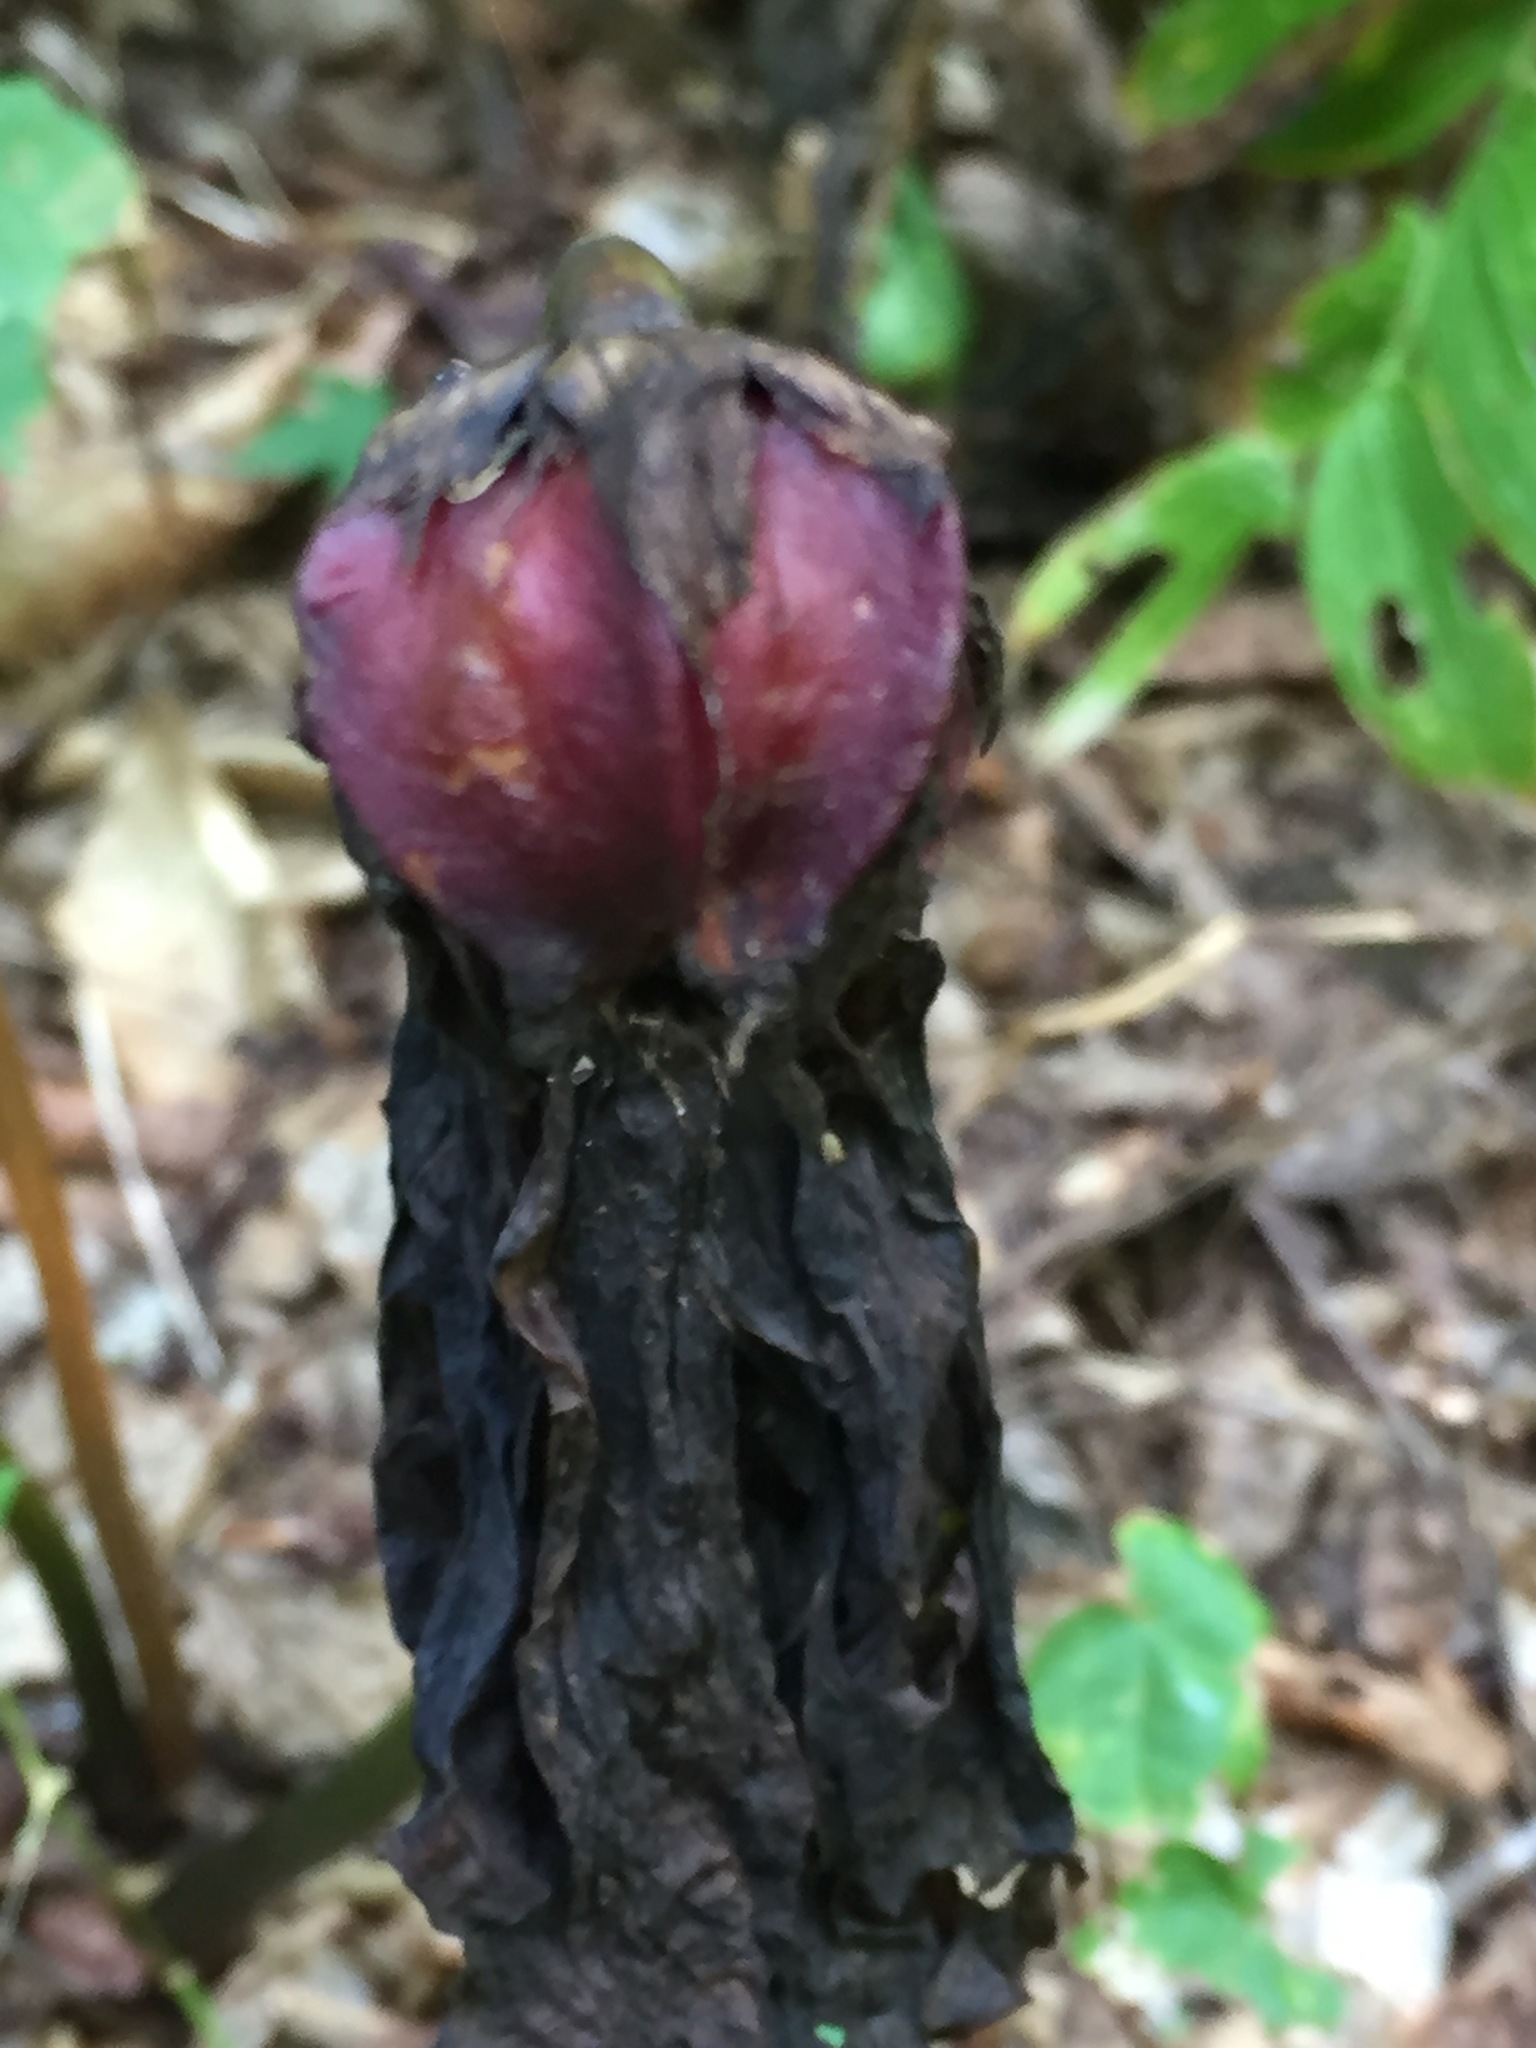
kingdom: Plantae
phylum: Tracheophyta
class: Liliopsida
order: Liliales
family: Melanthiaceae
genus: Trillium
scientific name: Trillium erectum
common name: Purple trillium
